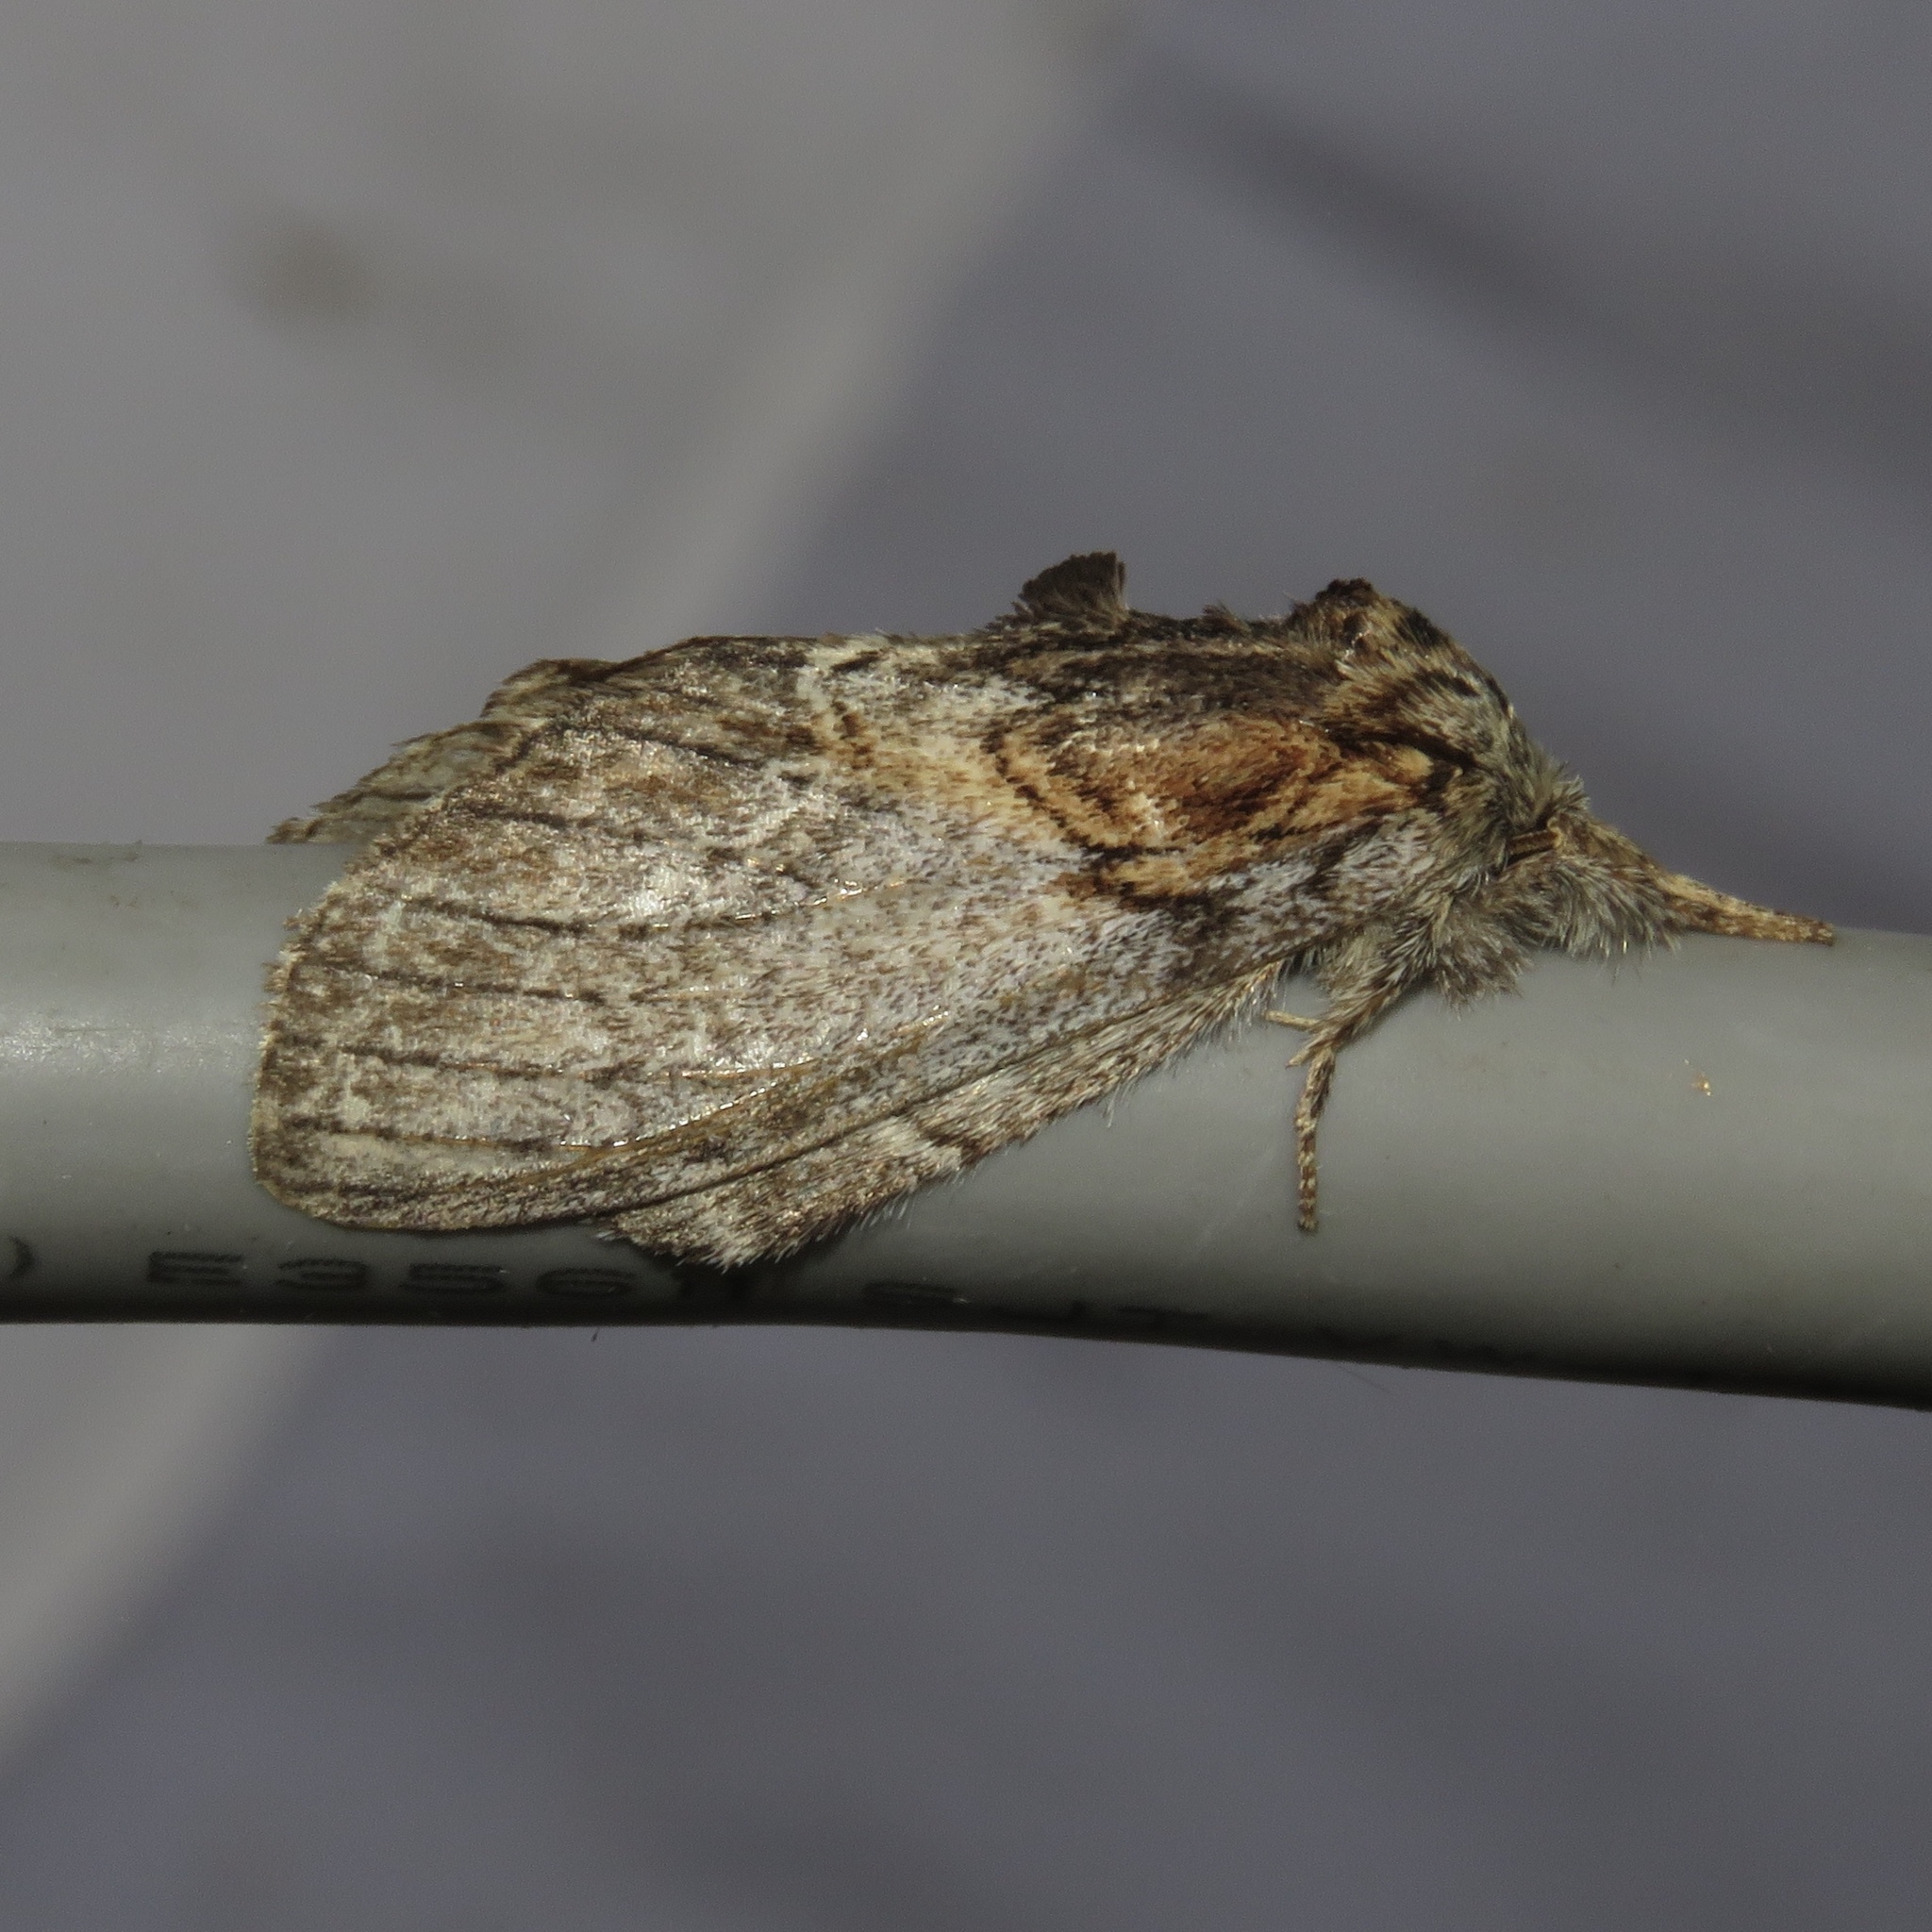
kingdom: Animalia
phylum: Arthropoda
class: Insecta
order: Lepidoptera
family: Notodontidae
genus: Peridea
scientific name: Peridea basitriens
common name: Oval-based prominent
